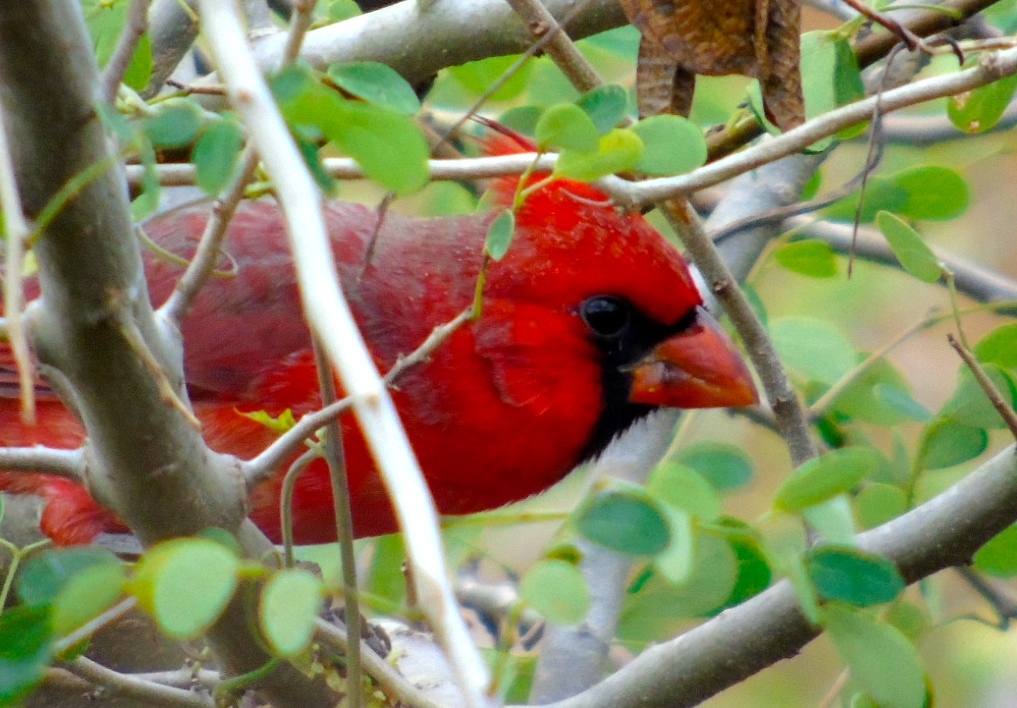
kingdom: Animalia
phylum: Chordata
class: Aves
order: Passeriformes
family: Cardinalidae
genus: Cardinalis
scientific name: Cardinalis cardinalis
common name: Northern cardinal
